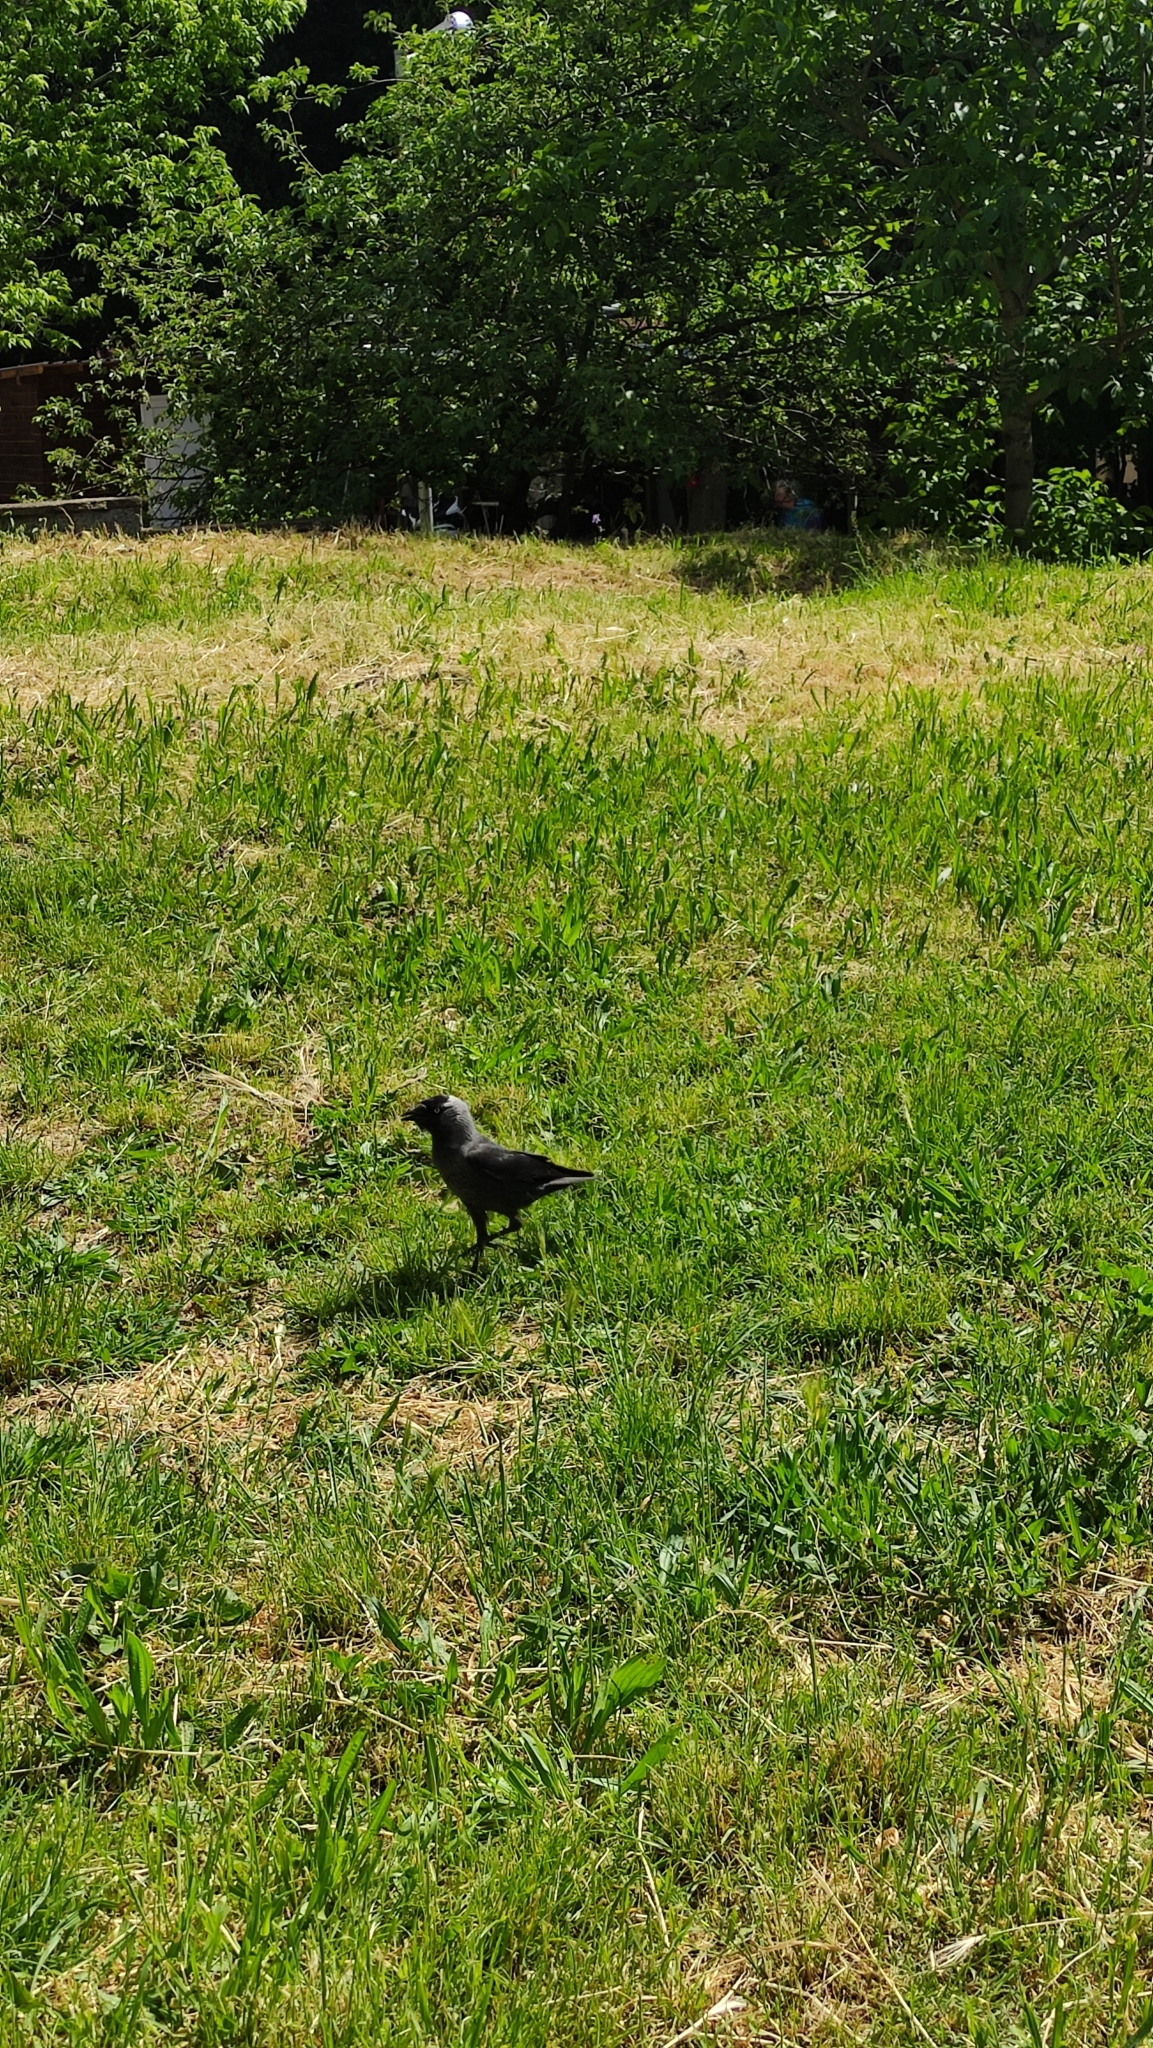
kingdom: Animalia
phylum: Chordata
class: Aves
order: Passeriformes
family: Corvidae
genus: Coloeus
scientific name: Coloeus monedula
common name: Western jackdaw
